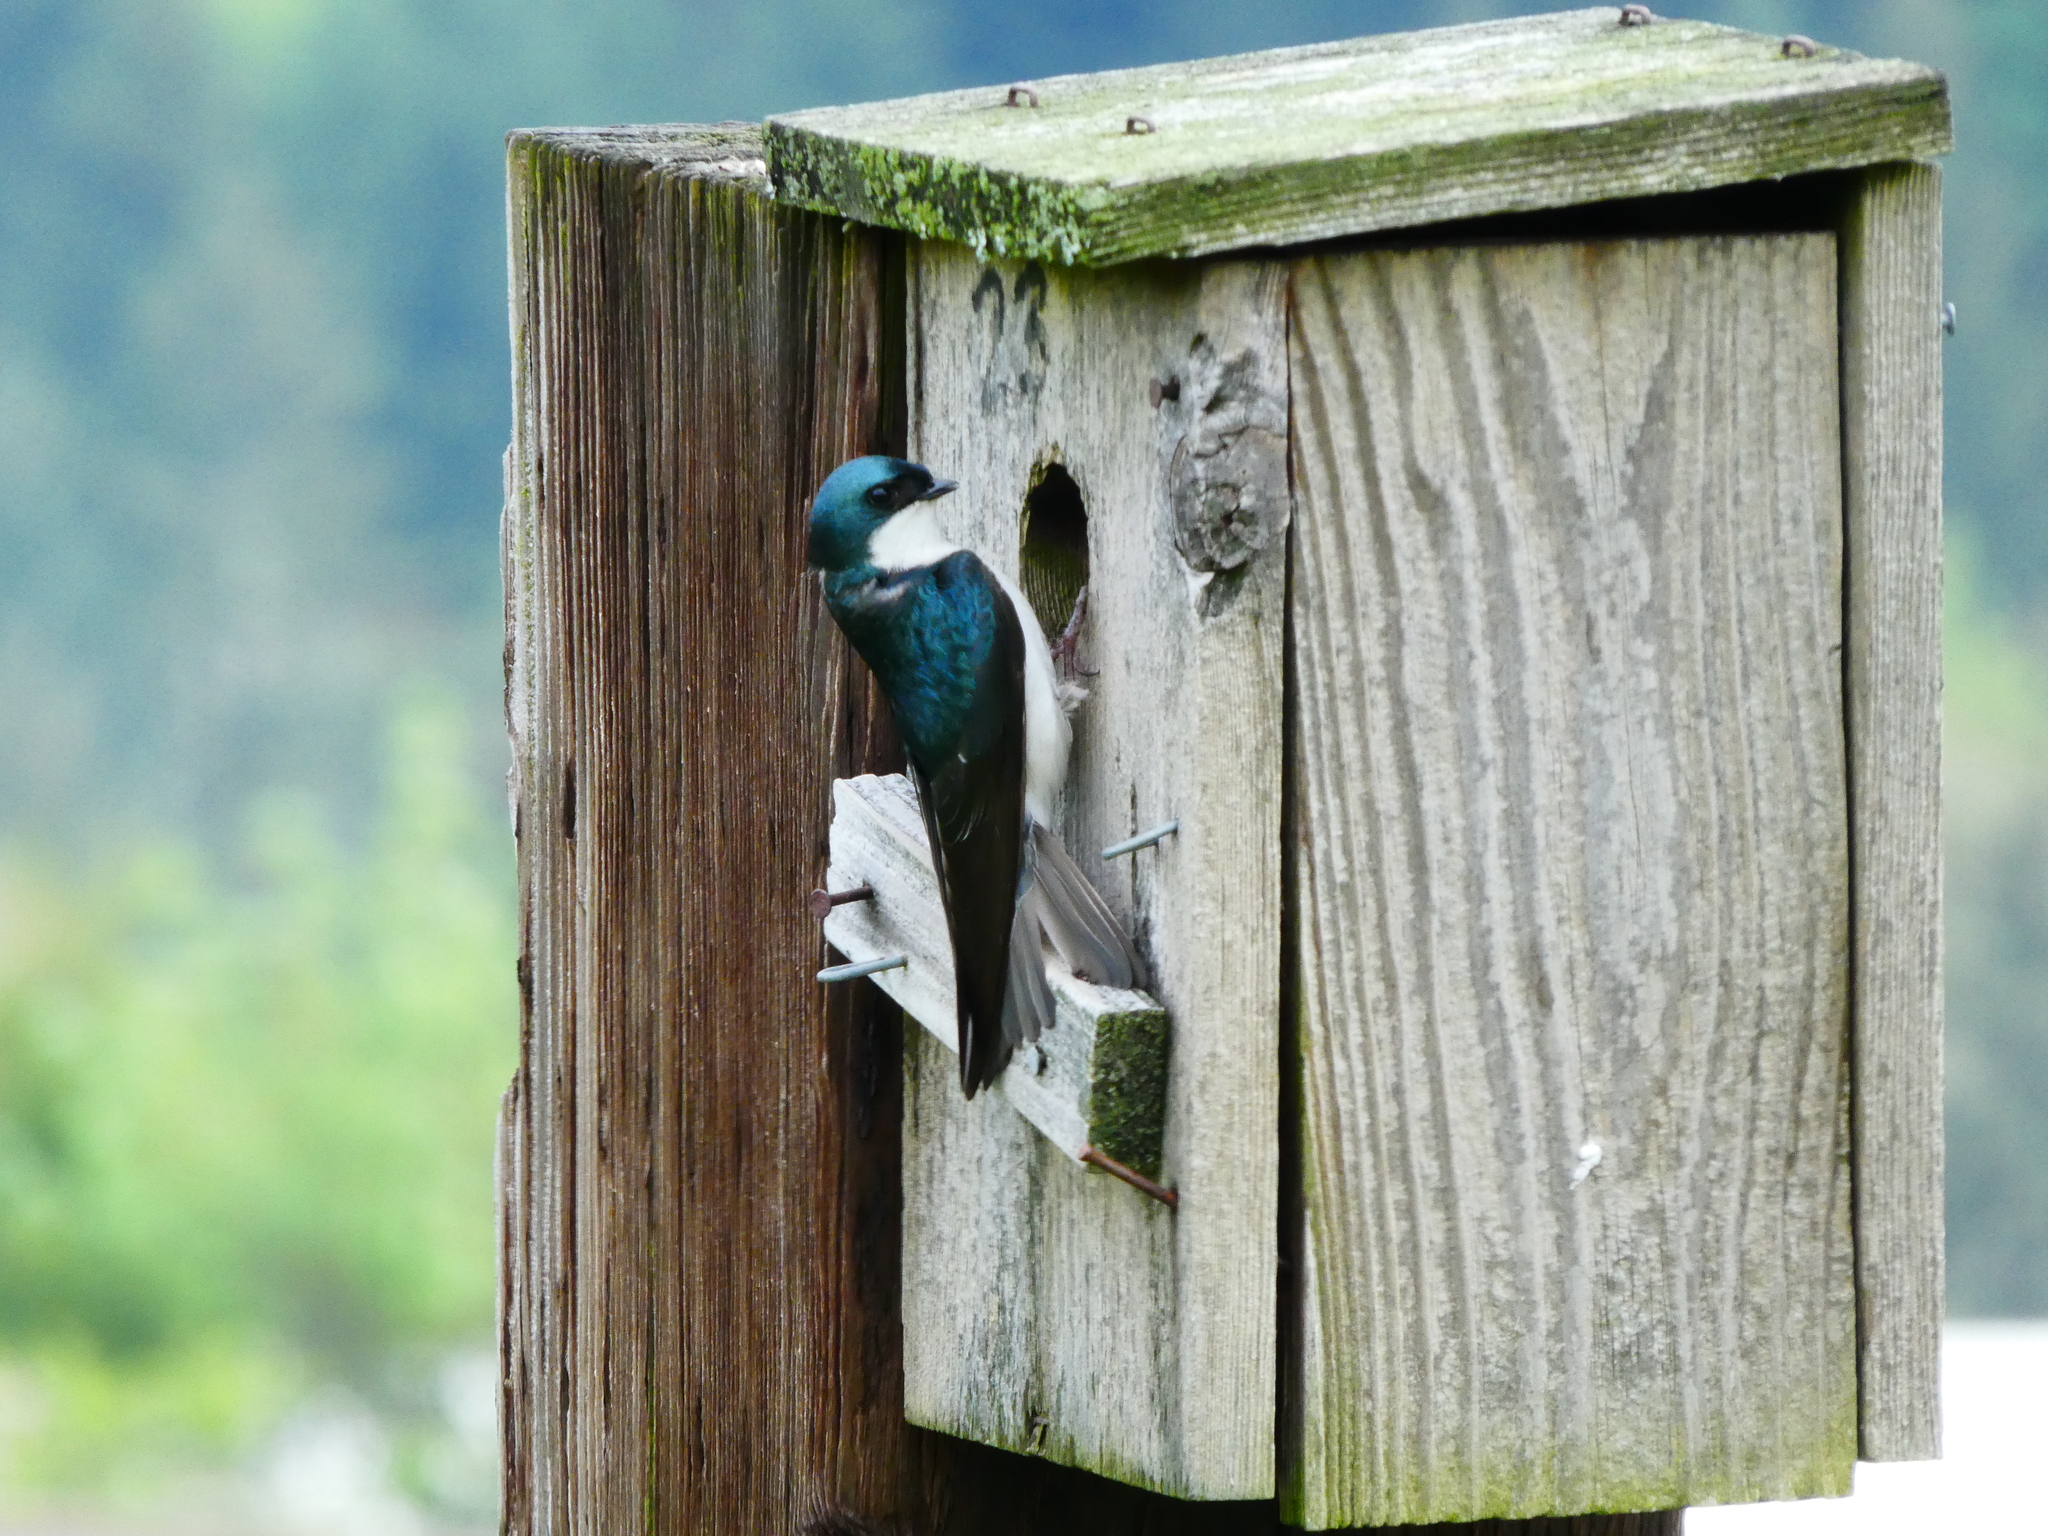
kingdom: Animalia
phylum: Chordata
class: Aves
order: Passeriformes
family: Hirundinidae
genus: Tachycineta
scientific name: Tachycineta bicolor
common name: Tree swallow
